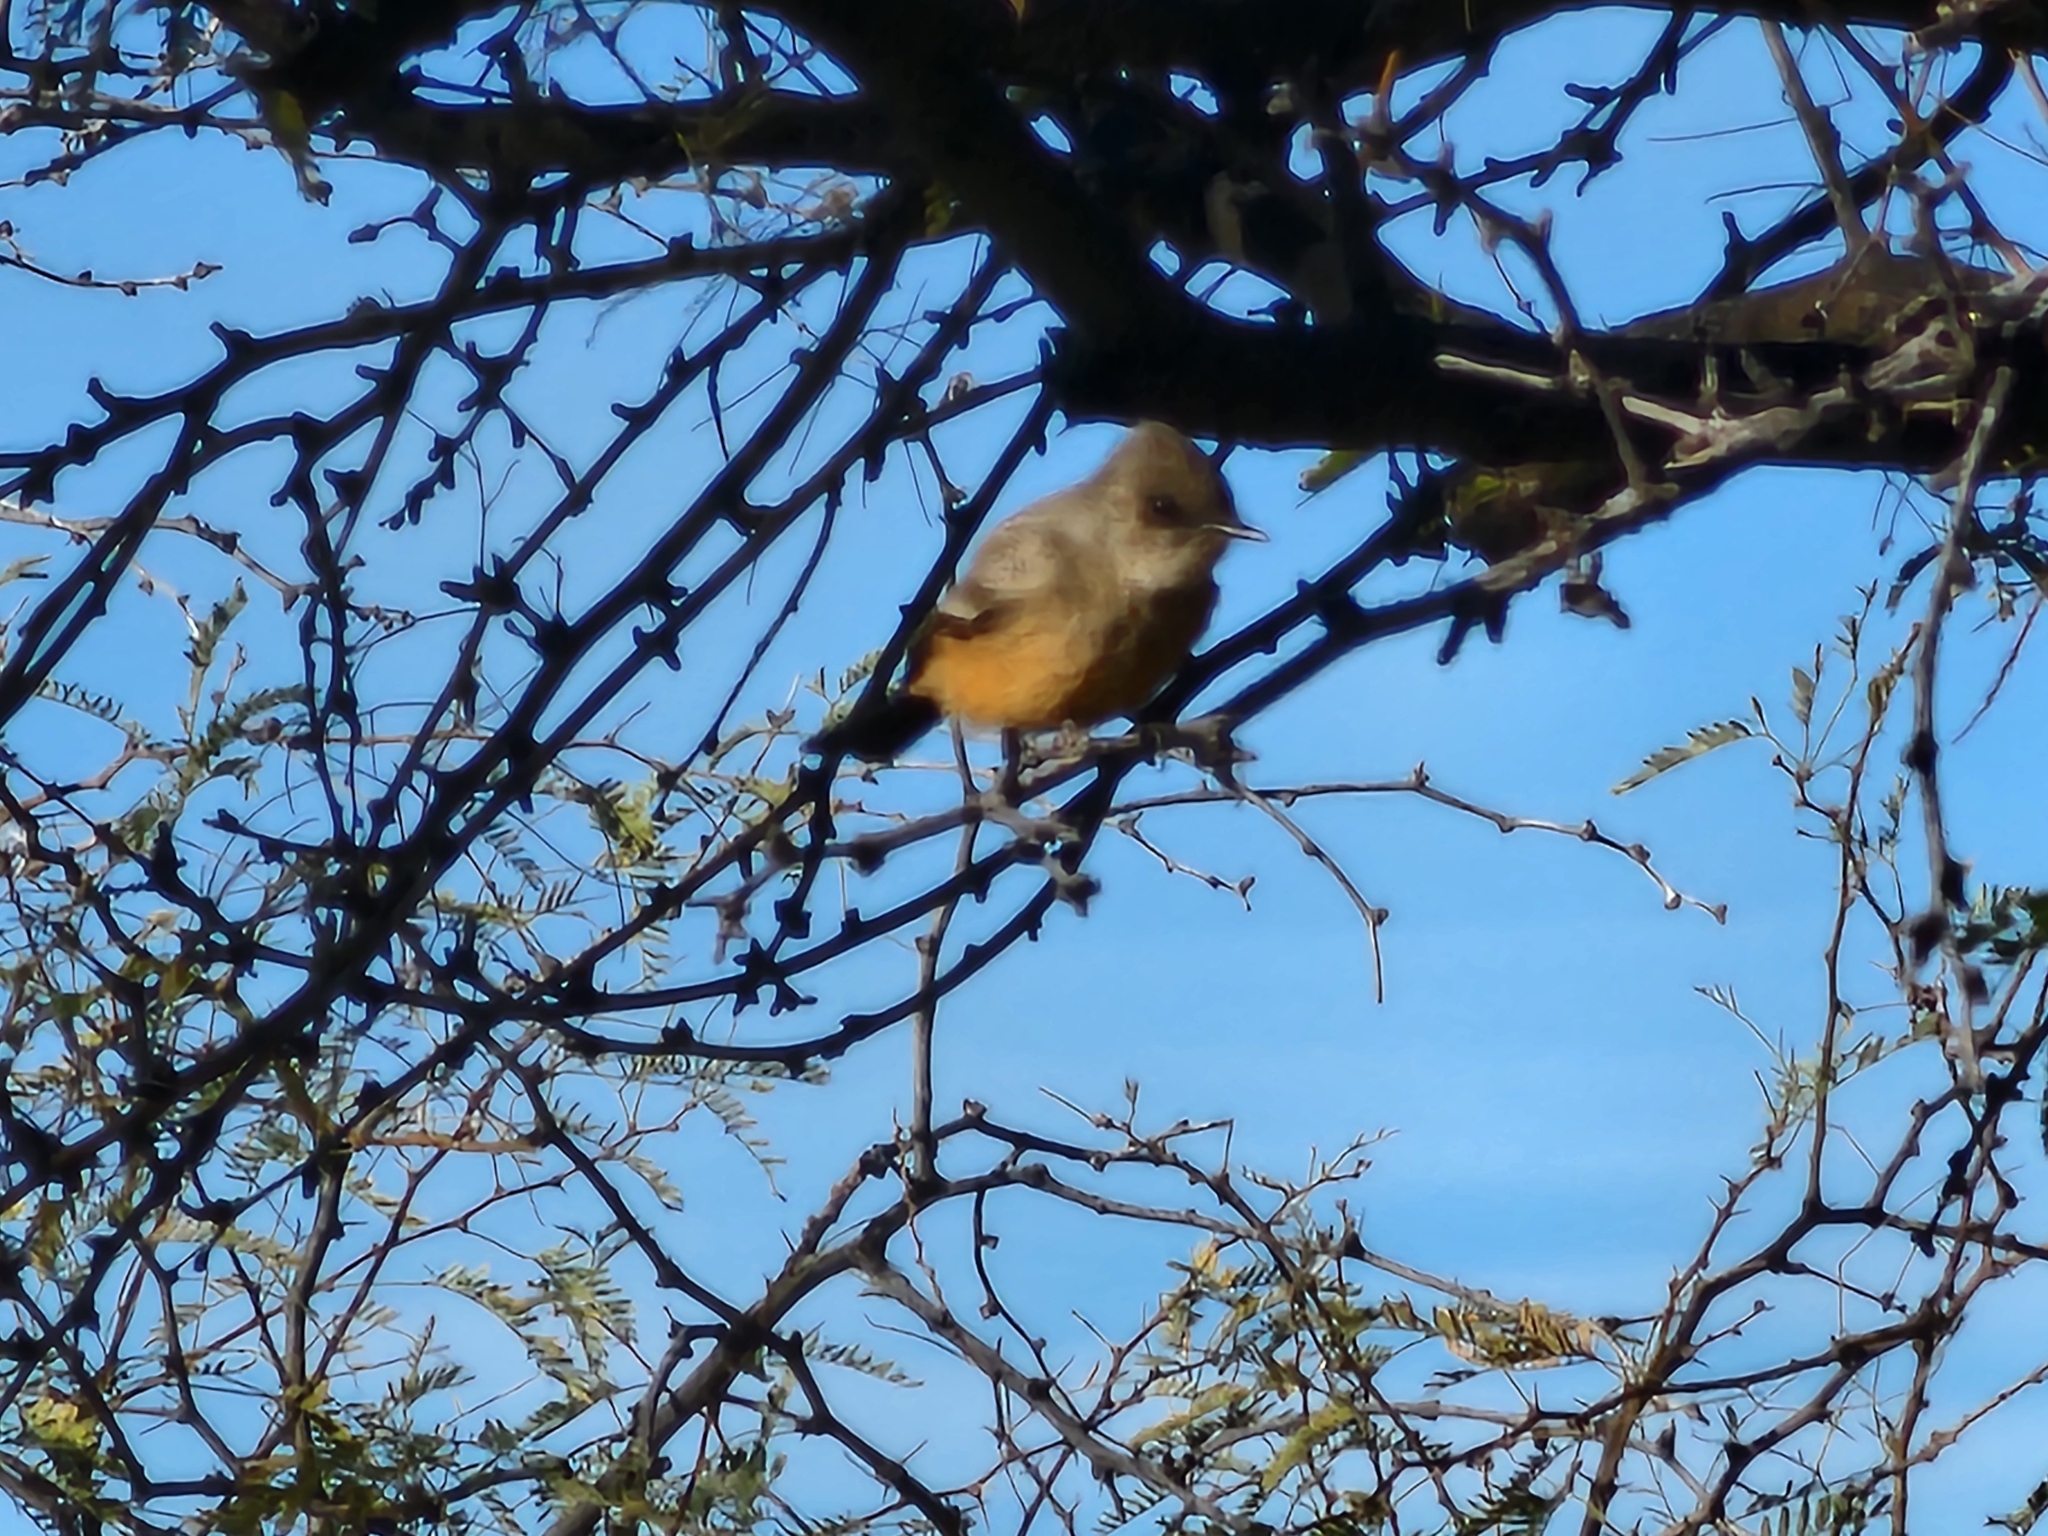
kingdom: Animalia
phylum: Chordata
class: Aves
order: Passeriformes
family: Tyrannidae
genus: Sayornis
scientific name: Sayornis saya
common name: Say's phoebe
